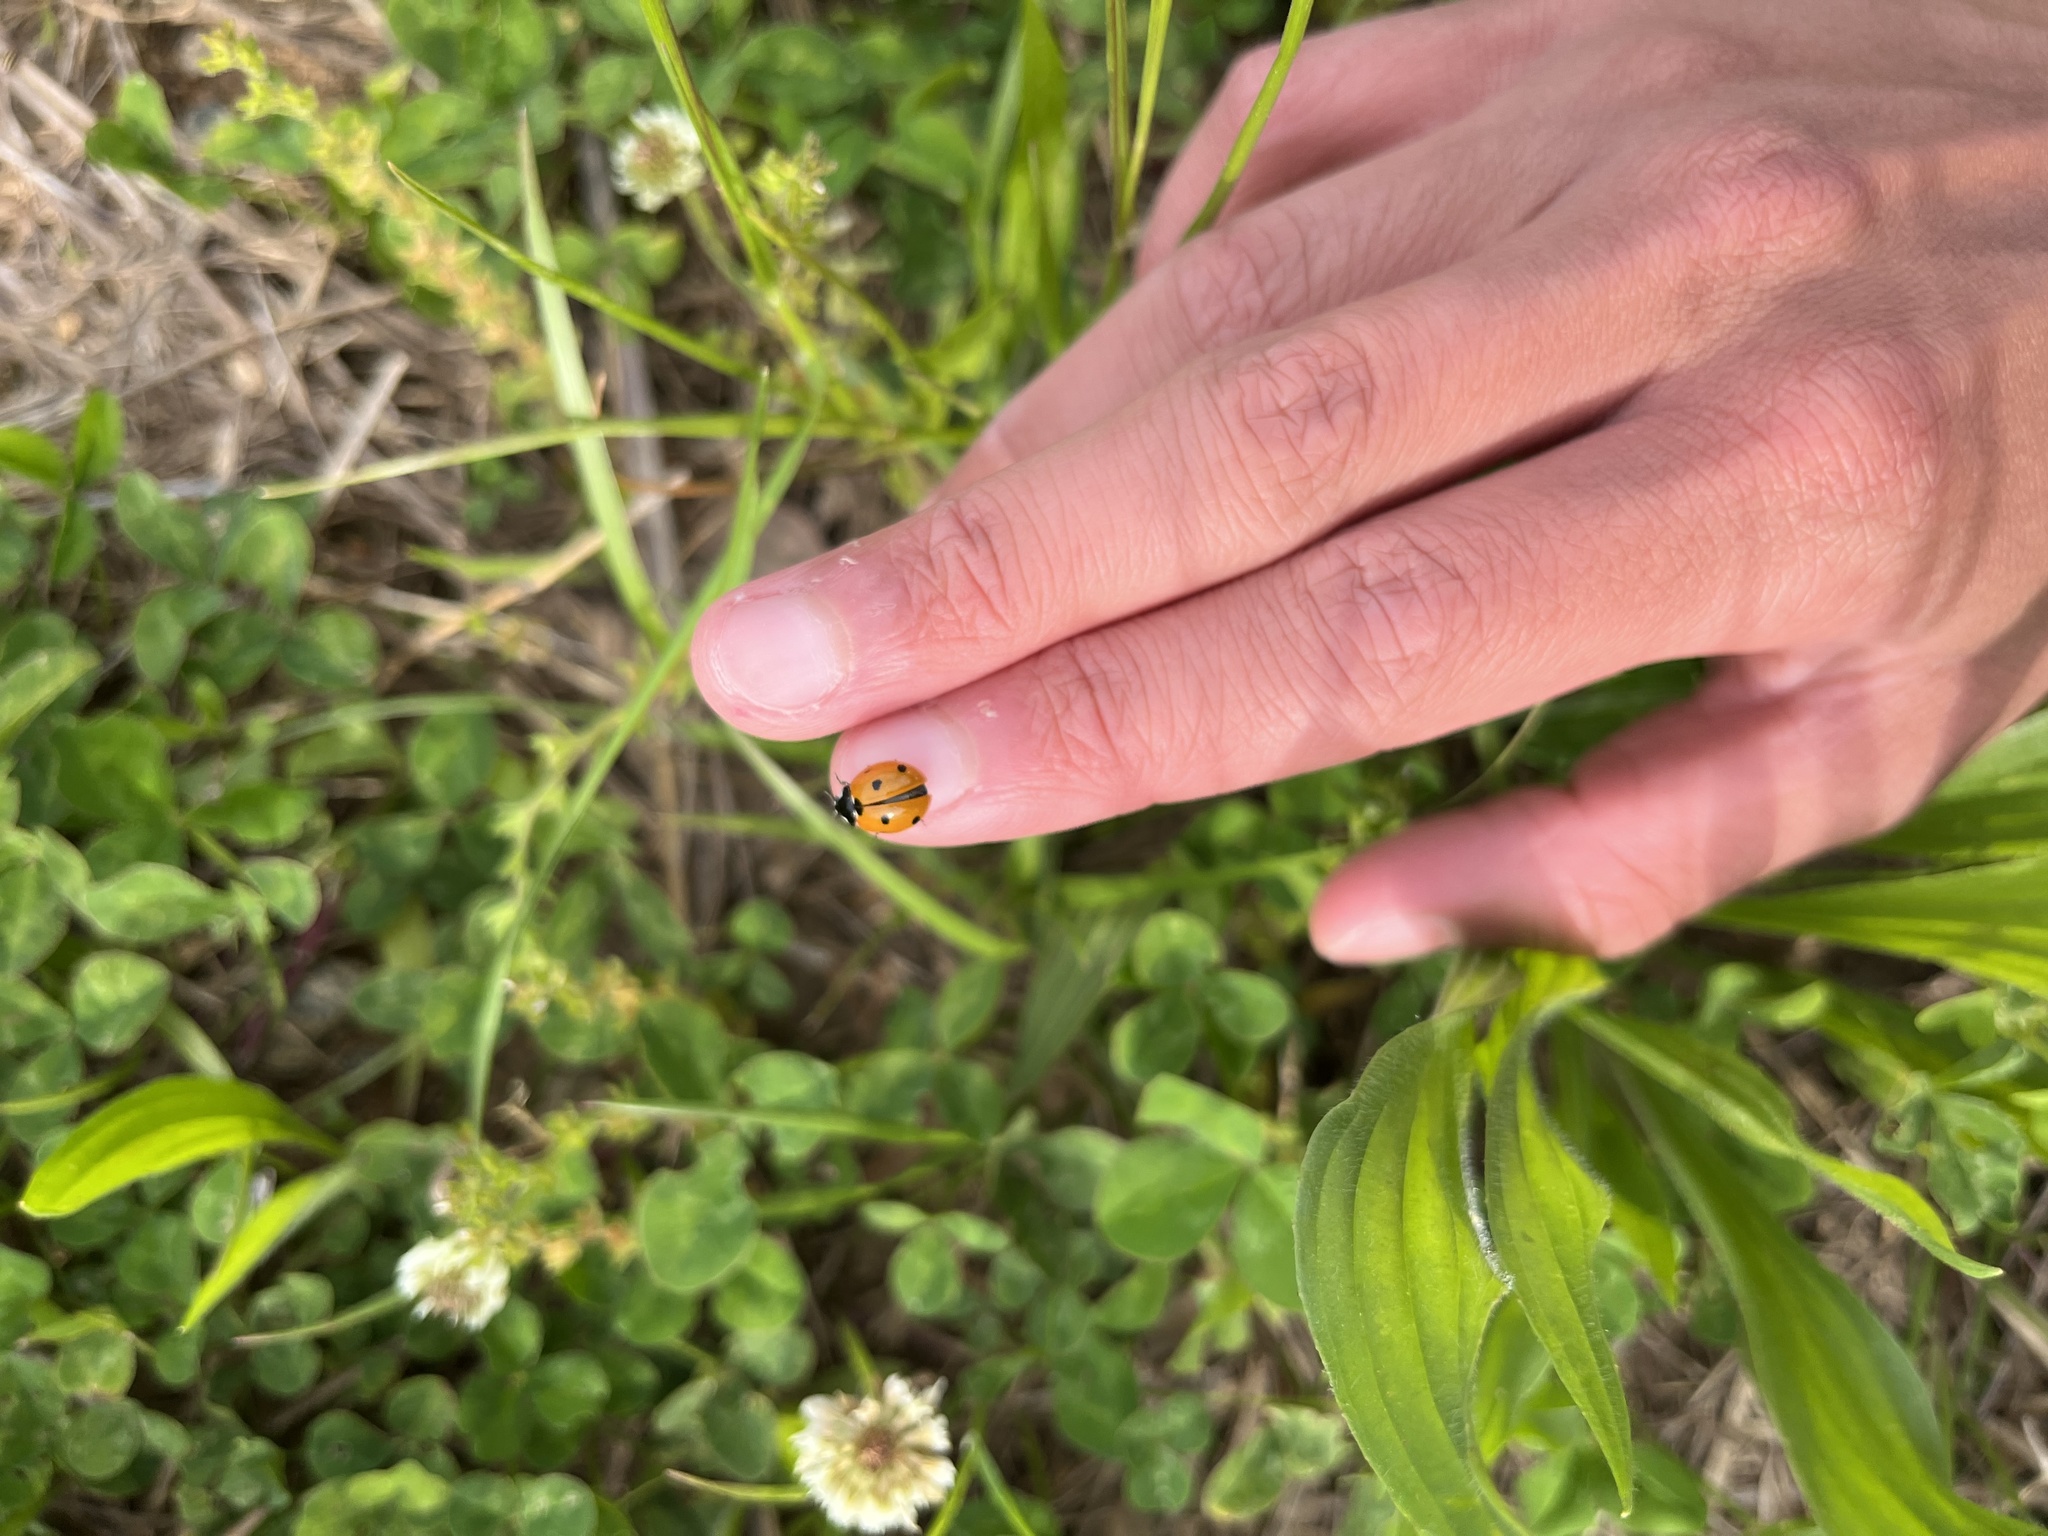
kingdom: Animalia
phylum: Arthropoda
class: Insecta
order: Coleoptera
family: Coccinellidae
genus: Coccinella
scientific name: Coccinella septempunctata
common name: Sevenspotted lady beetle
